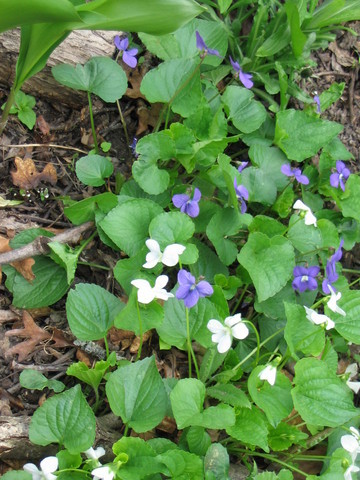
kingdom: Plantae
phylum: Tracheophyta
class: Magnoliopsida
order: Malpighiales
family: Violaceae
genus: Viola
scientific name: Viola sororia
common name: Dooryard violet
